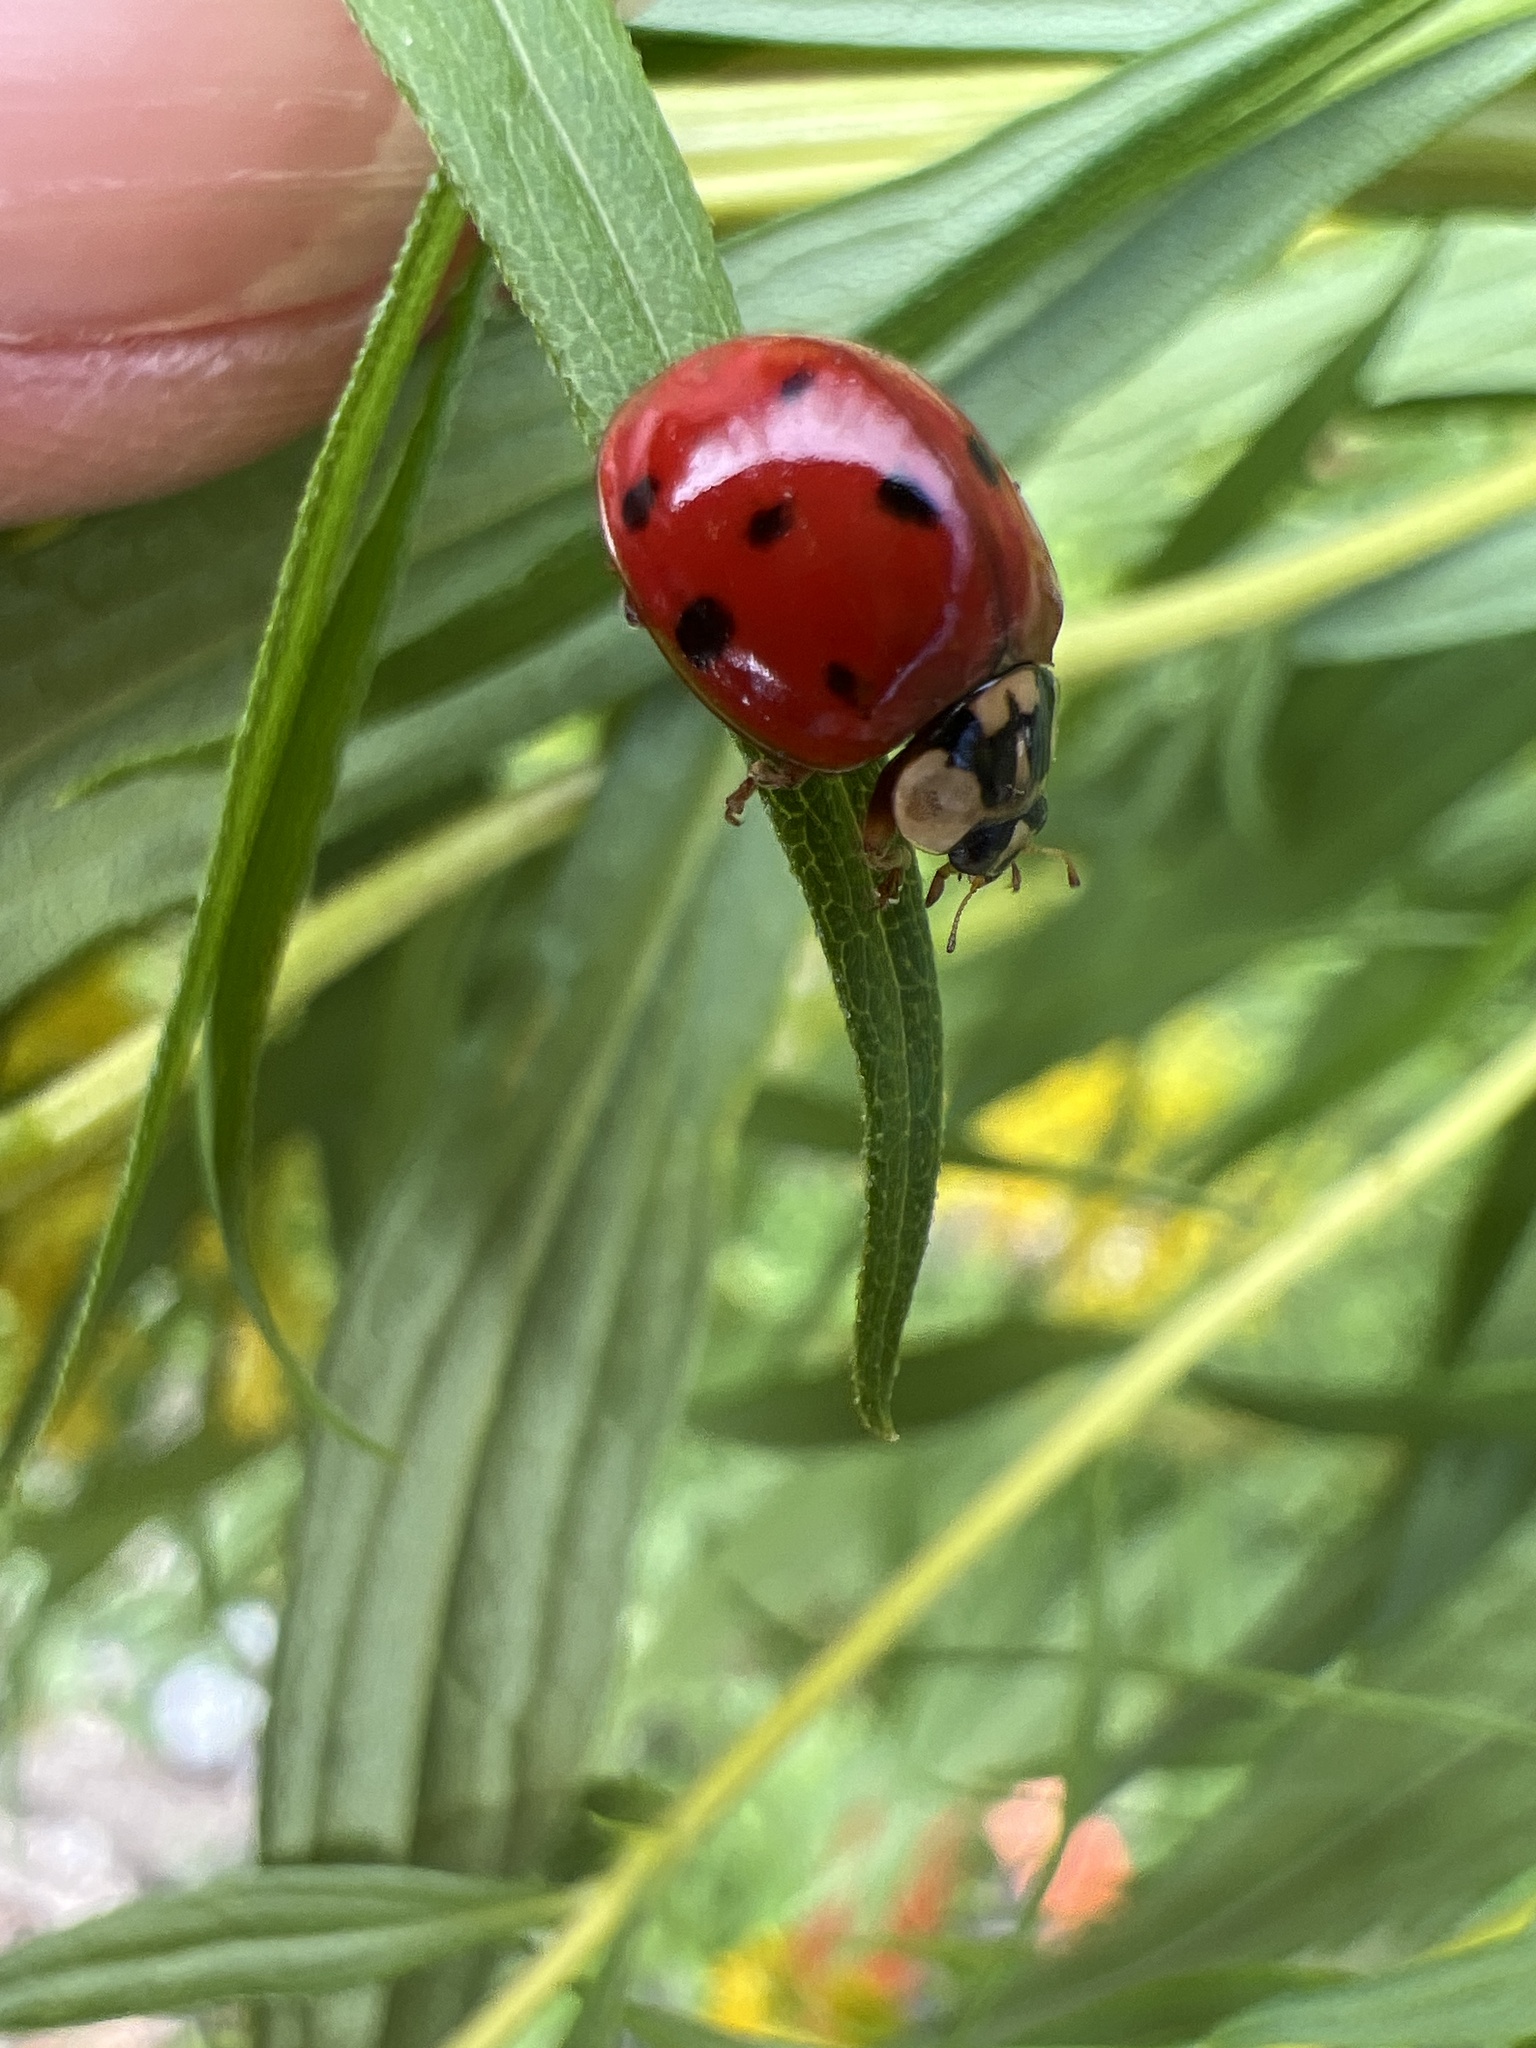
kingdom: Animalia
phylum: Arthropoda
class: Insecta
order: Coleoptera
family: Coccinellidae
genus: Harmonia
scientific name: Harmonia axyridis
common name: Harlequin ladybird
